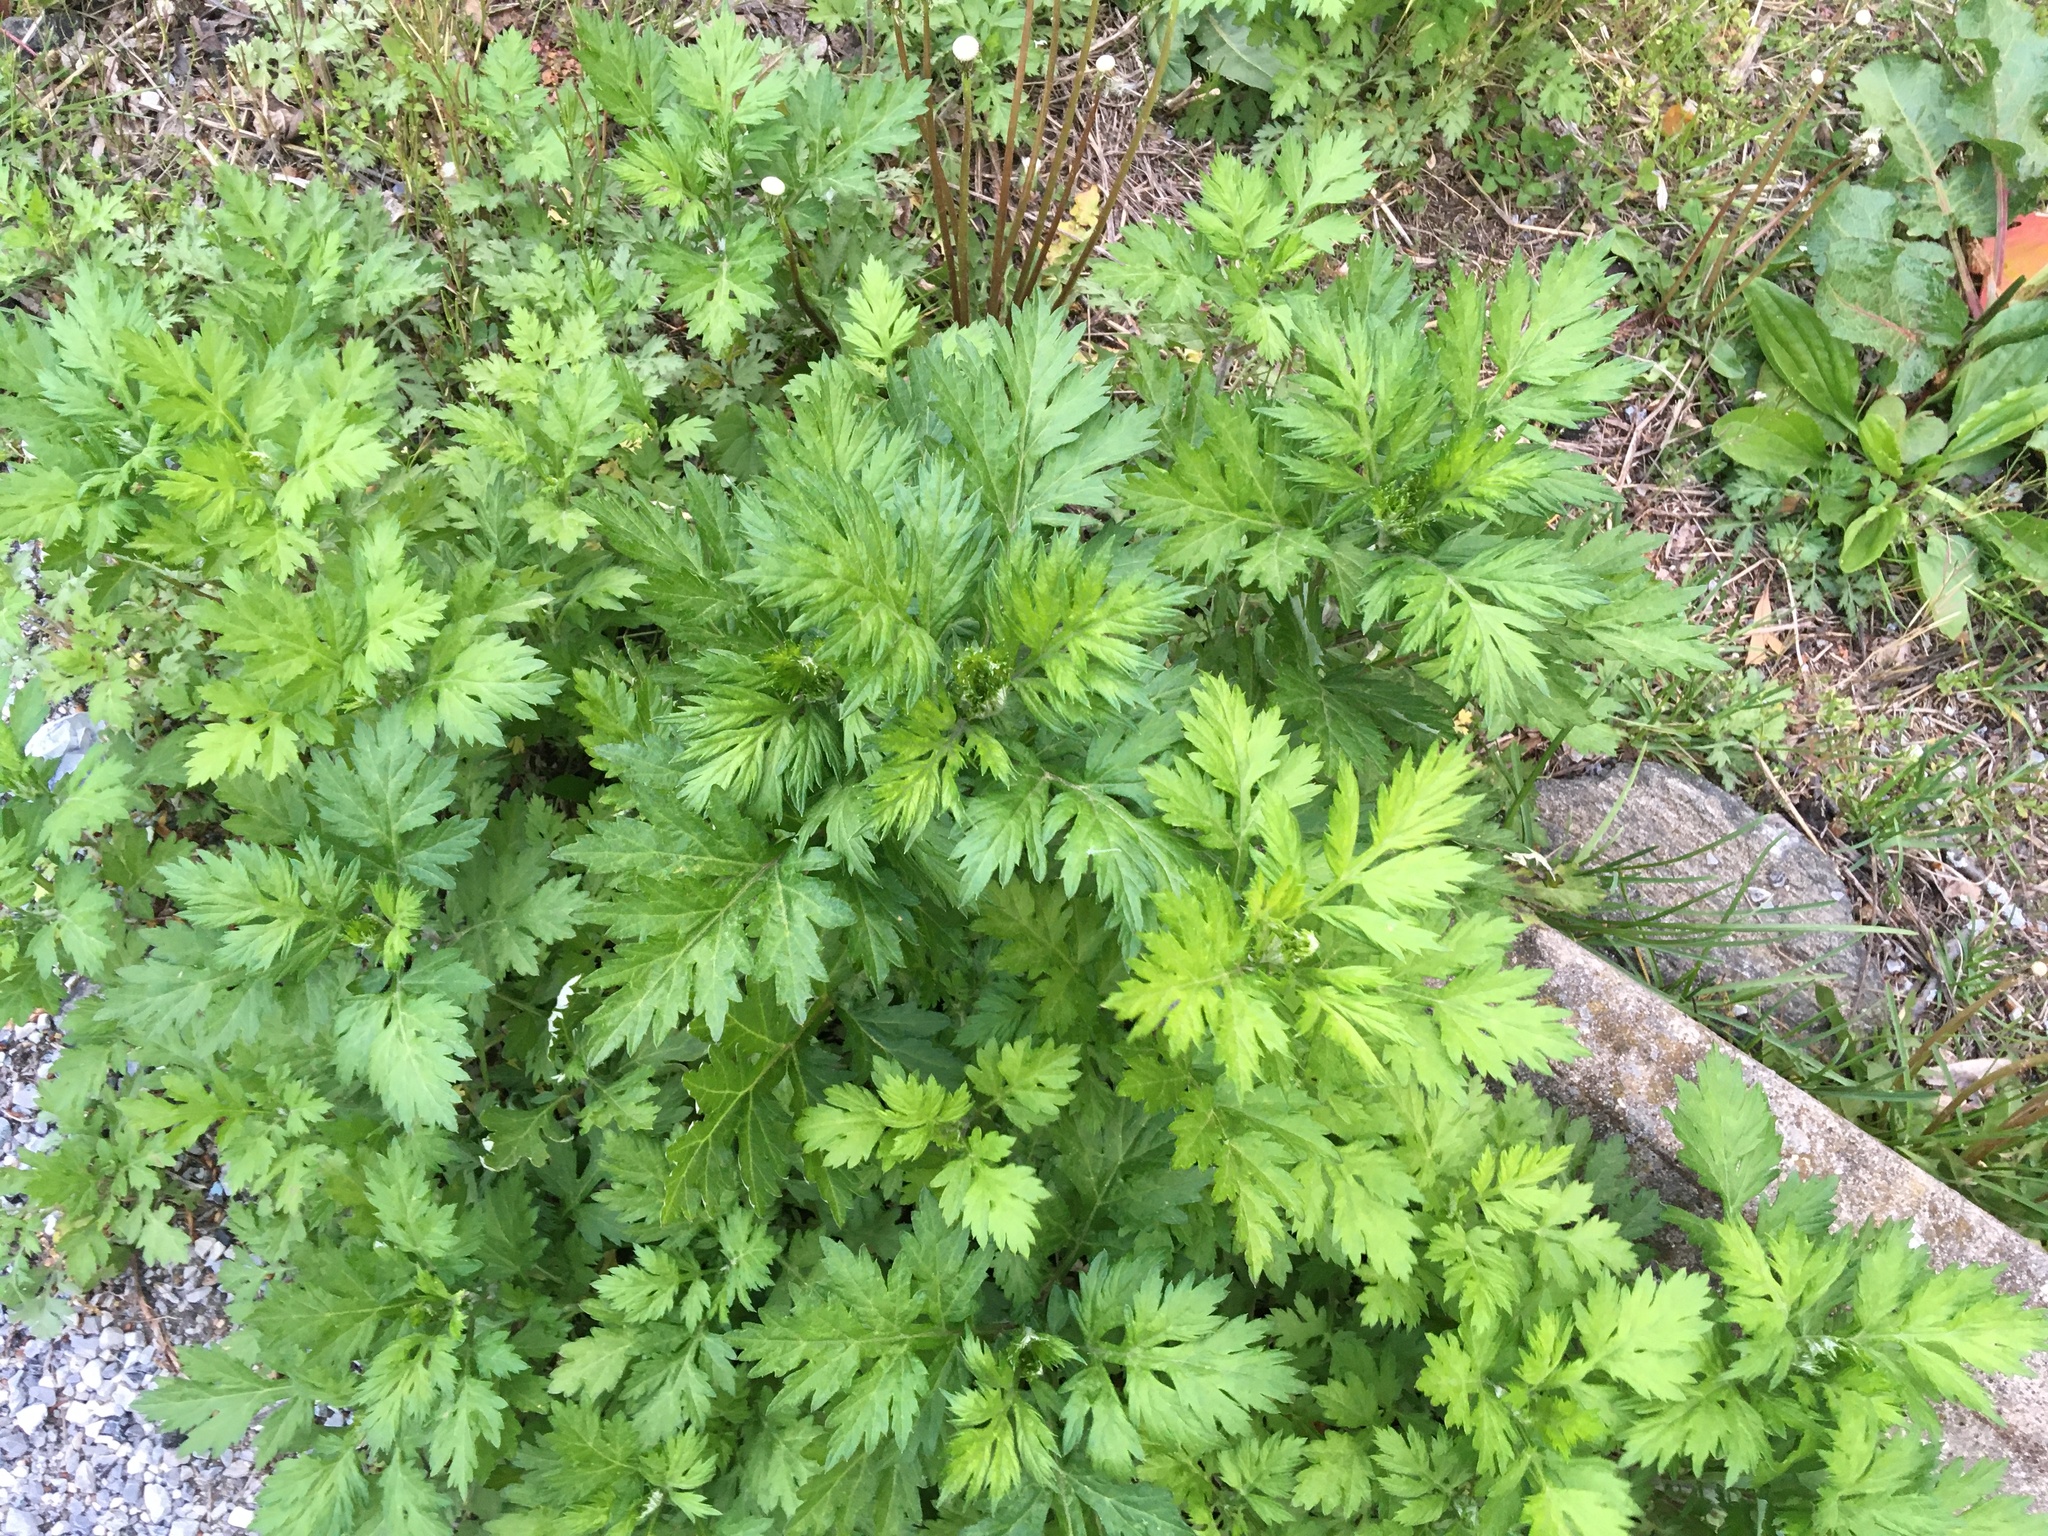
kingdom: Plantae
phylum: Tracheophyta
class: Magnoliopsida
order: Asterales
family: Asteraceae
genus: Artemisia
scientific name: Artemisia vulgaris
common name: Mugwort
